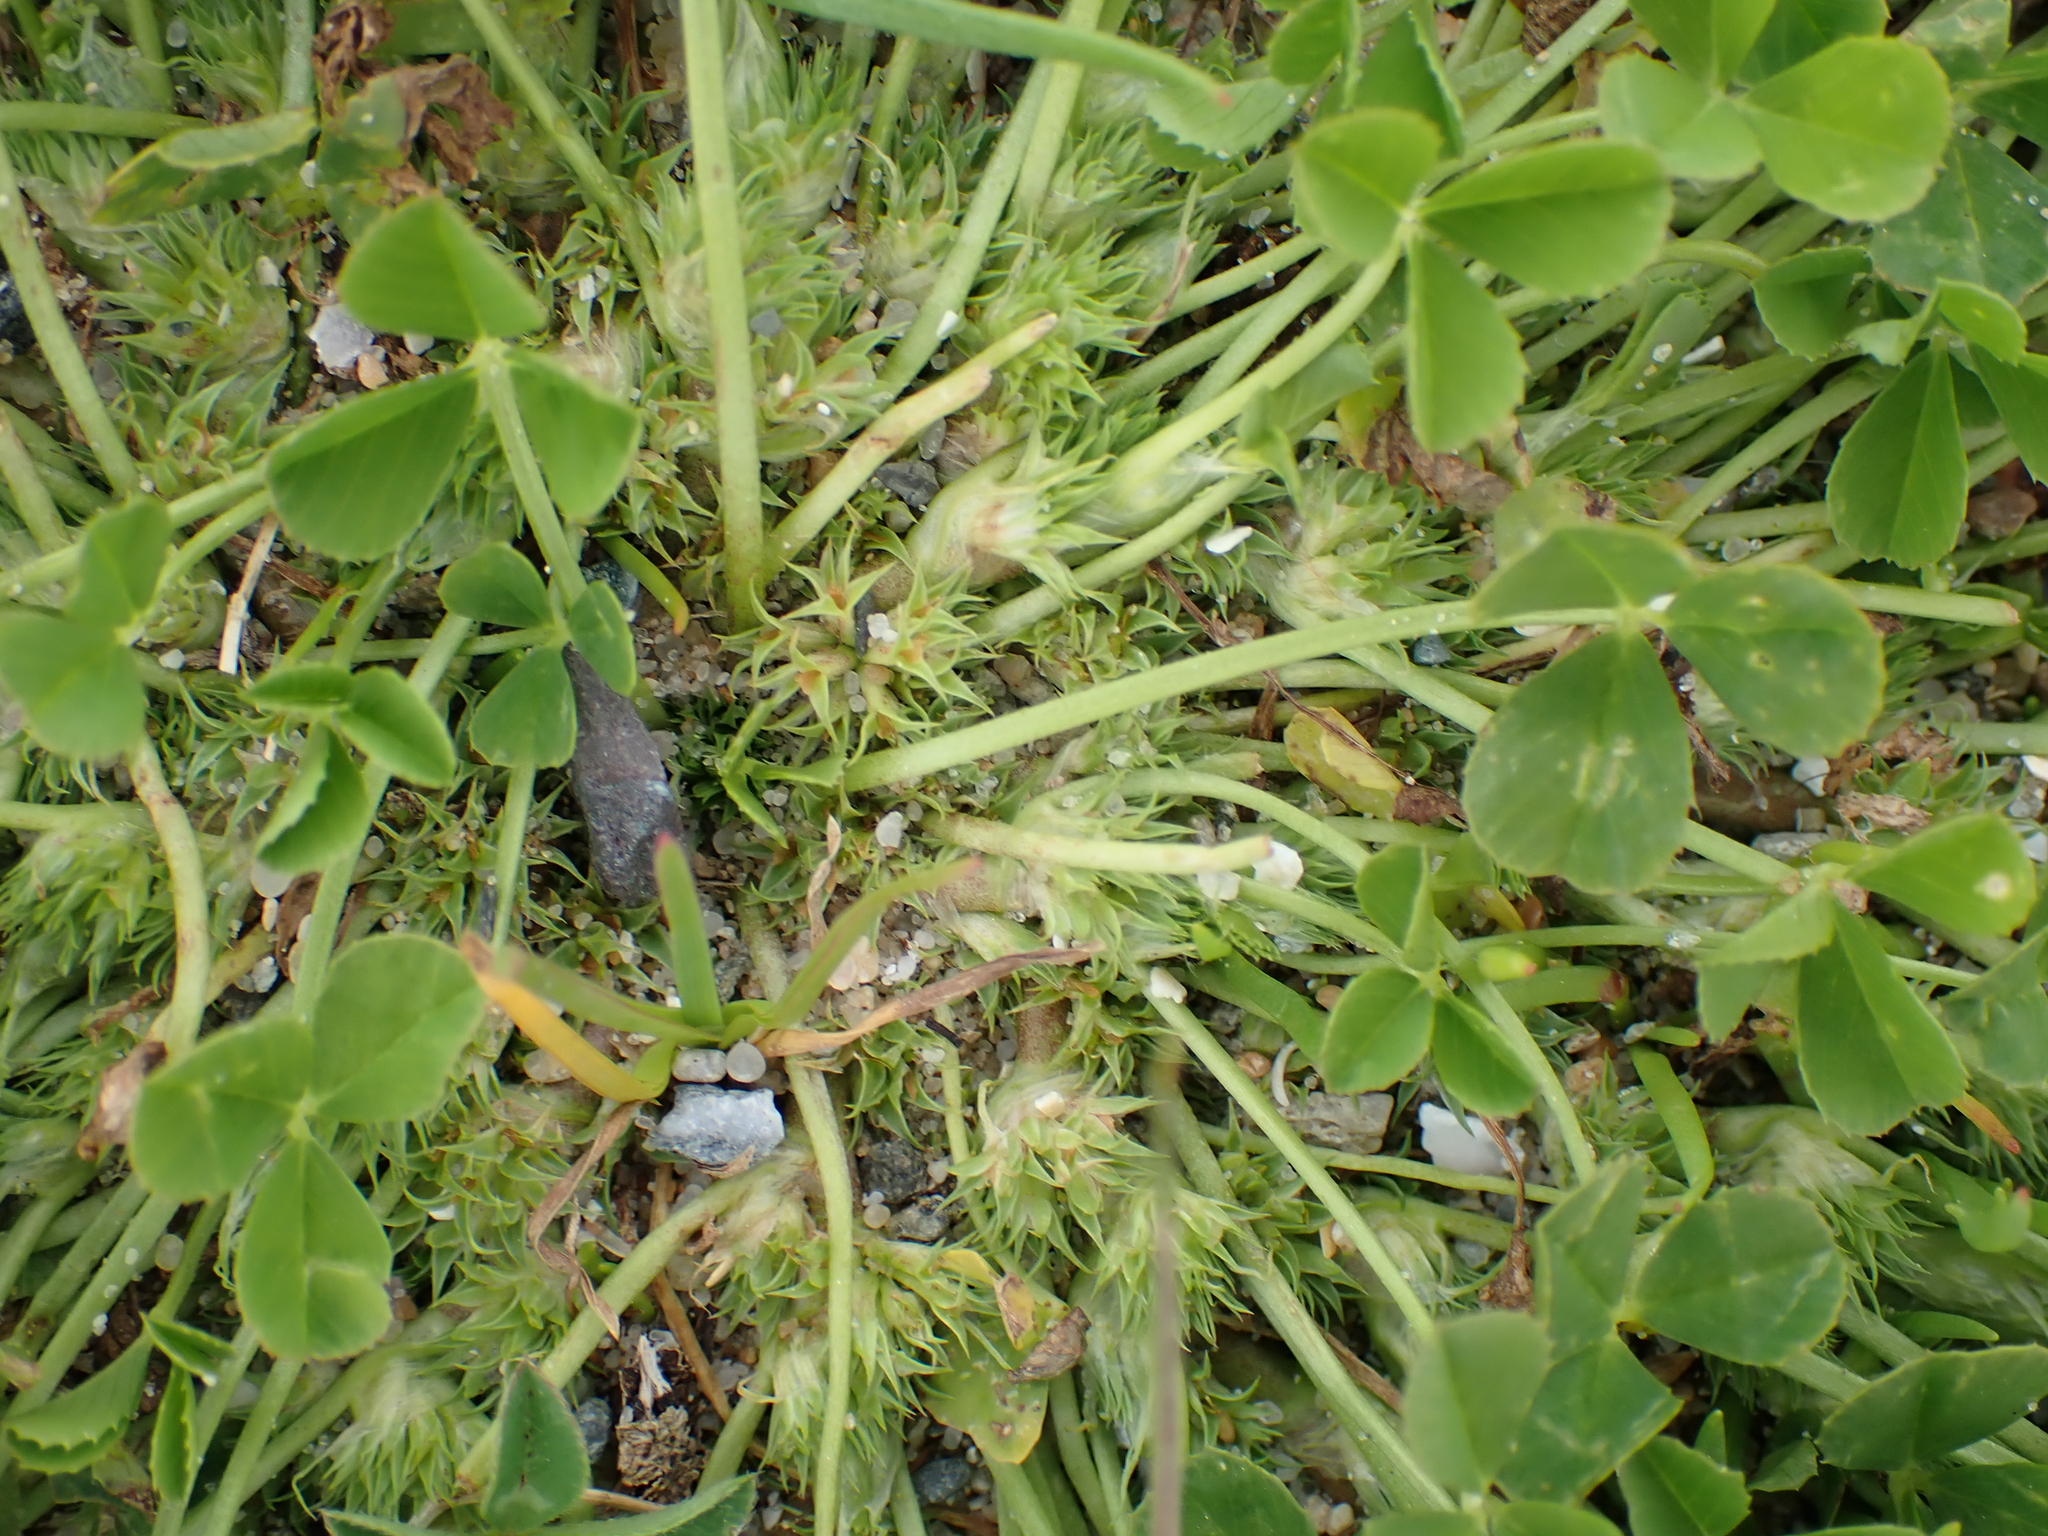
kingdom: Plantae
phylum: Tracheophyta
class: Magnoliopsida
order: Fabales
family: Fabaceae
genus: Trifolium
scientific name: Trifolium suffocatum
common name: Suffocated clover
